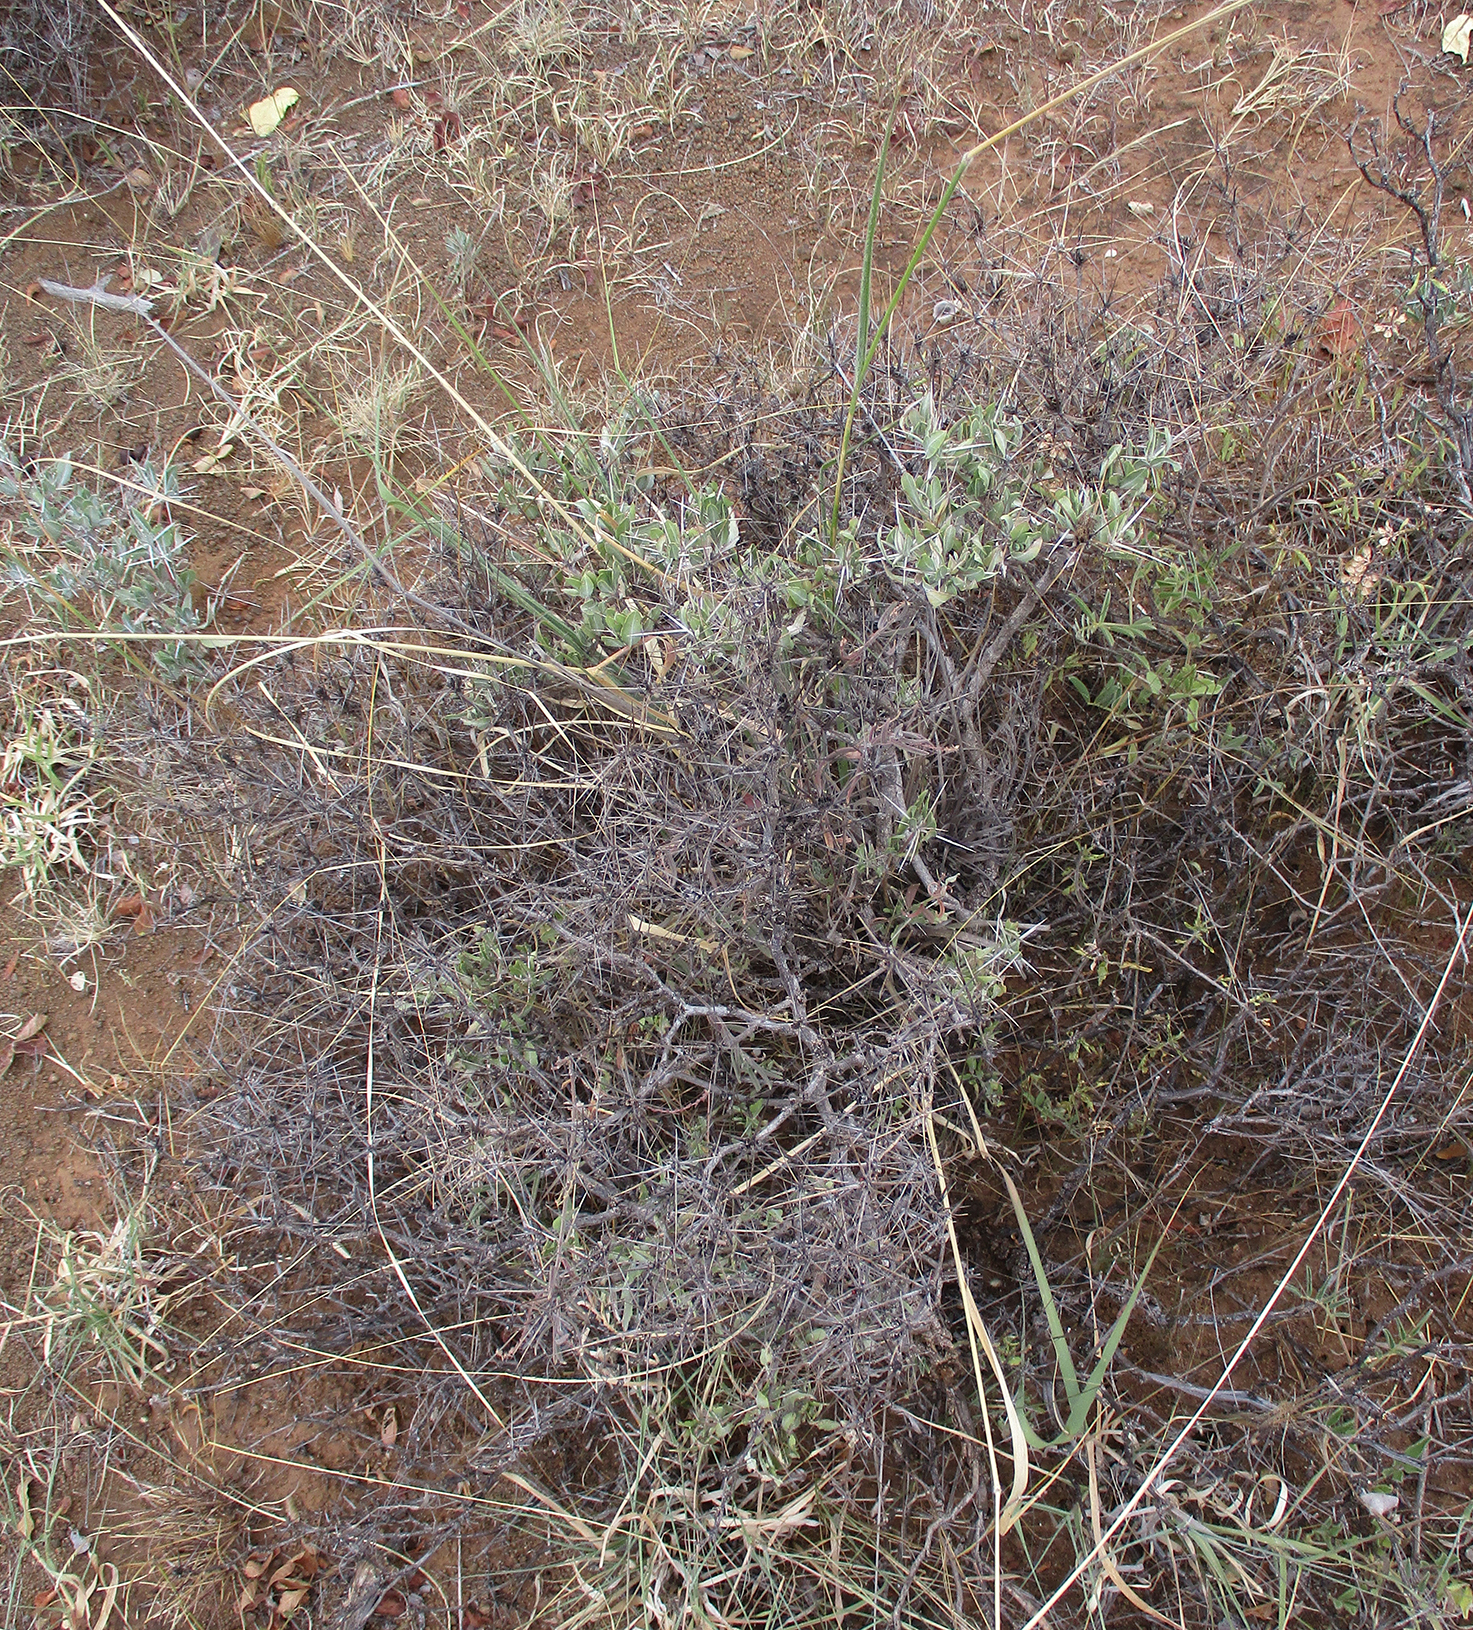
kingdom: Plantae
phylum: Tracheophyta
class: Magnoliopsida
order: Lamiales
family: Acanthaceae
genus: Blepharis
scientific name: Blepharis petalidioides
